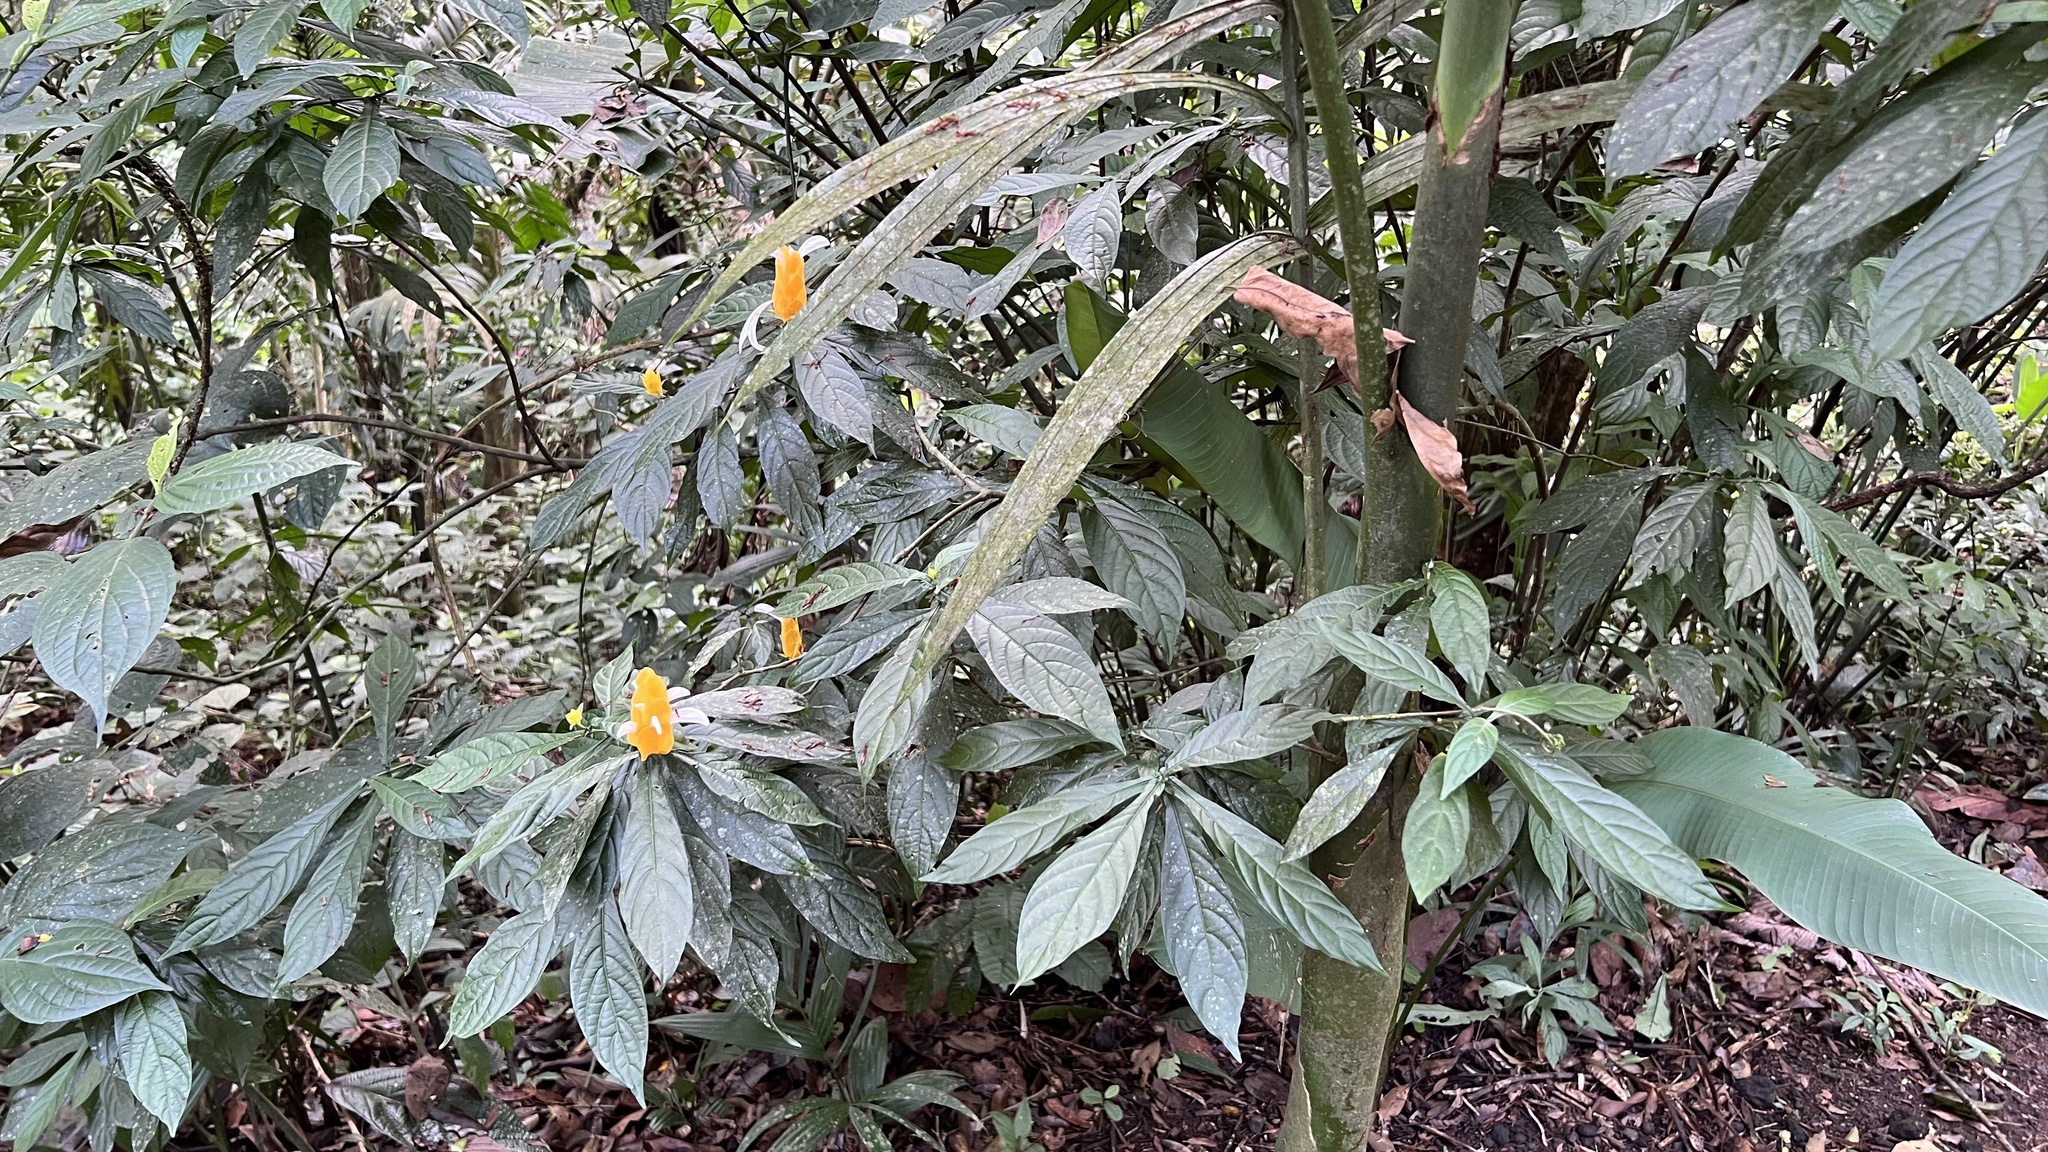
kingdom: Plantae
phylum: Tracheophyta
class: Magnoliopsida
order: Lamiales
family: Acanthaceae
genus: Pachystachys
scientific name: Pachystachys lutea
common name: Golden shrimp-plant
